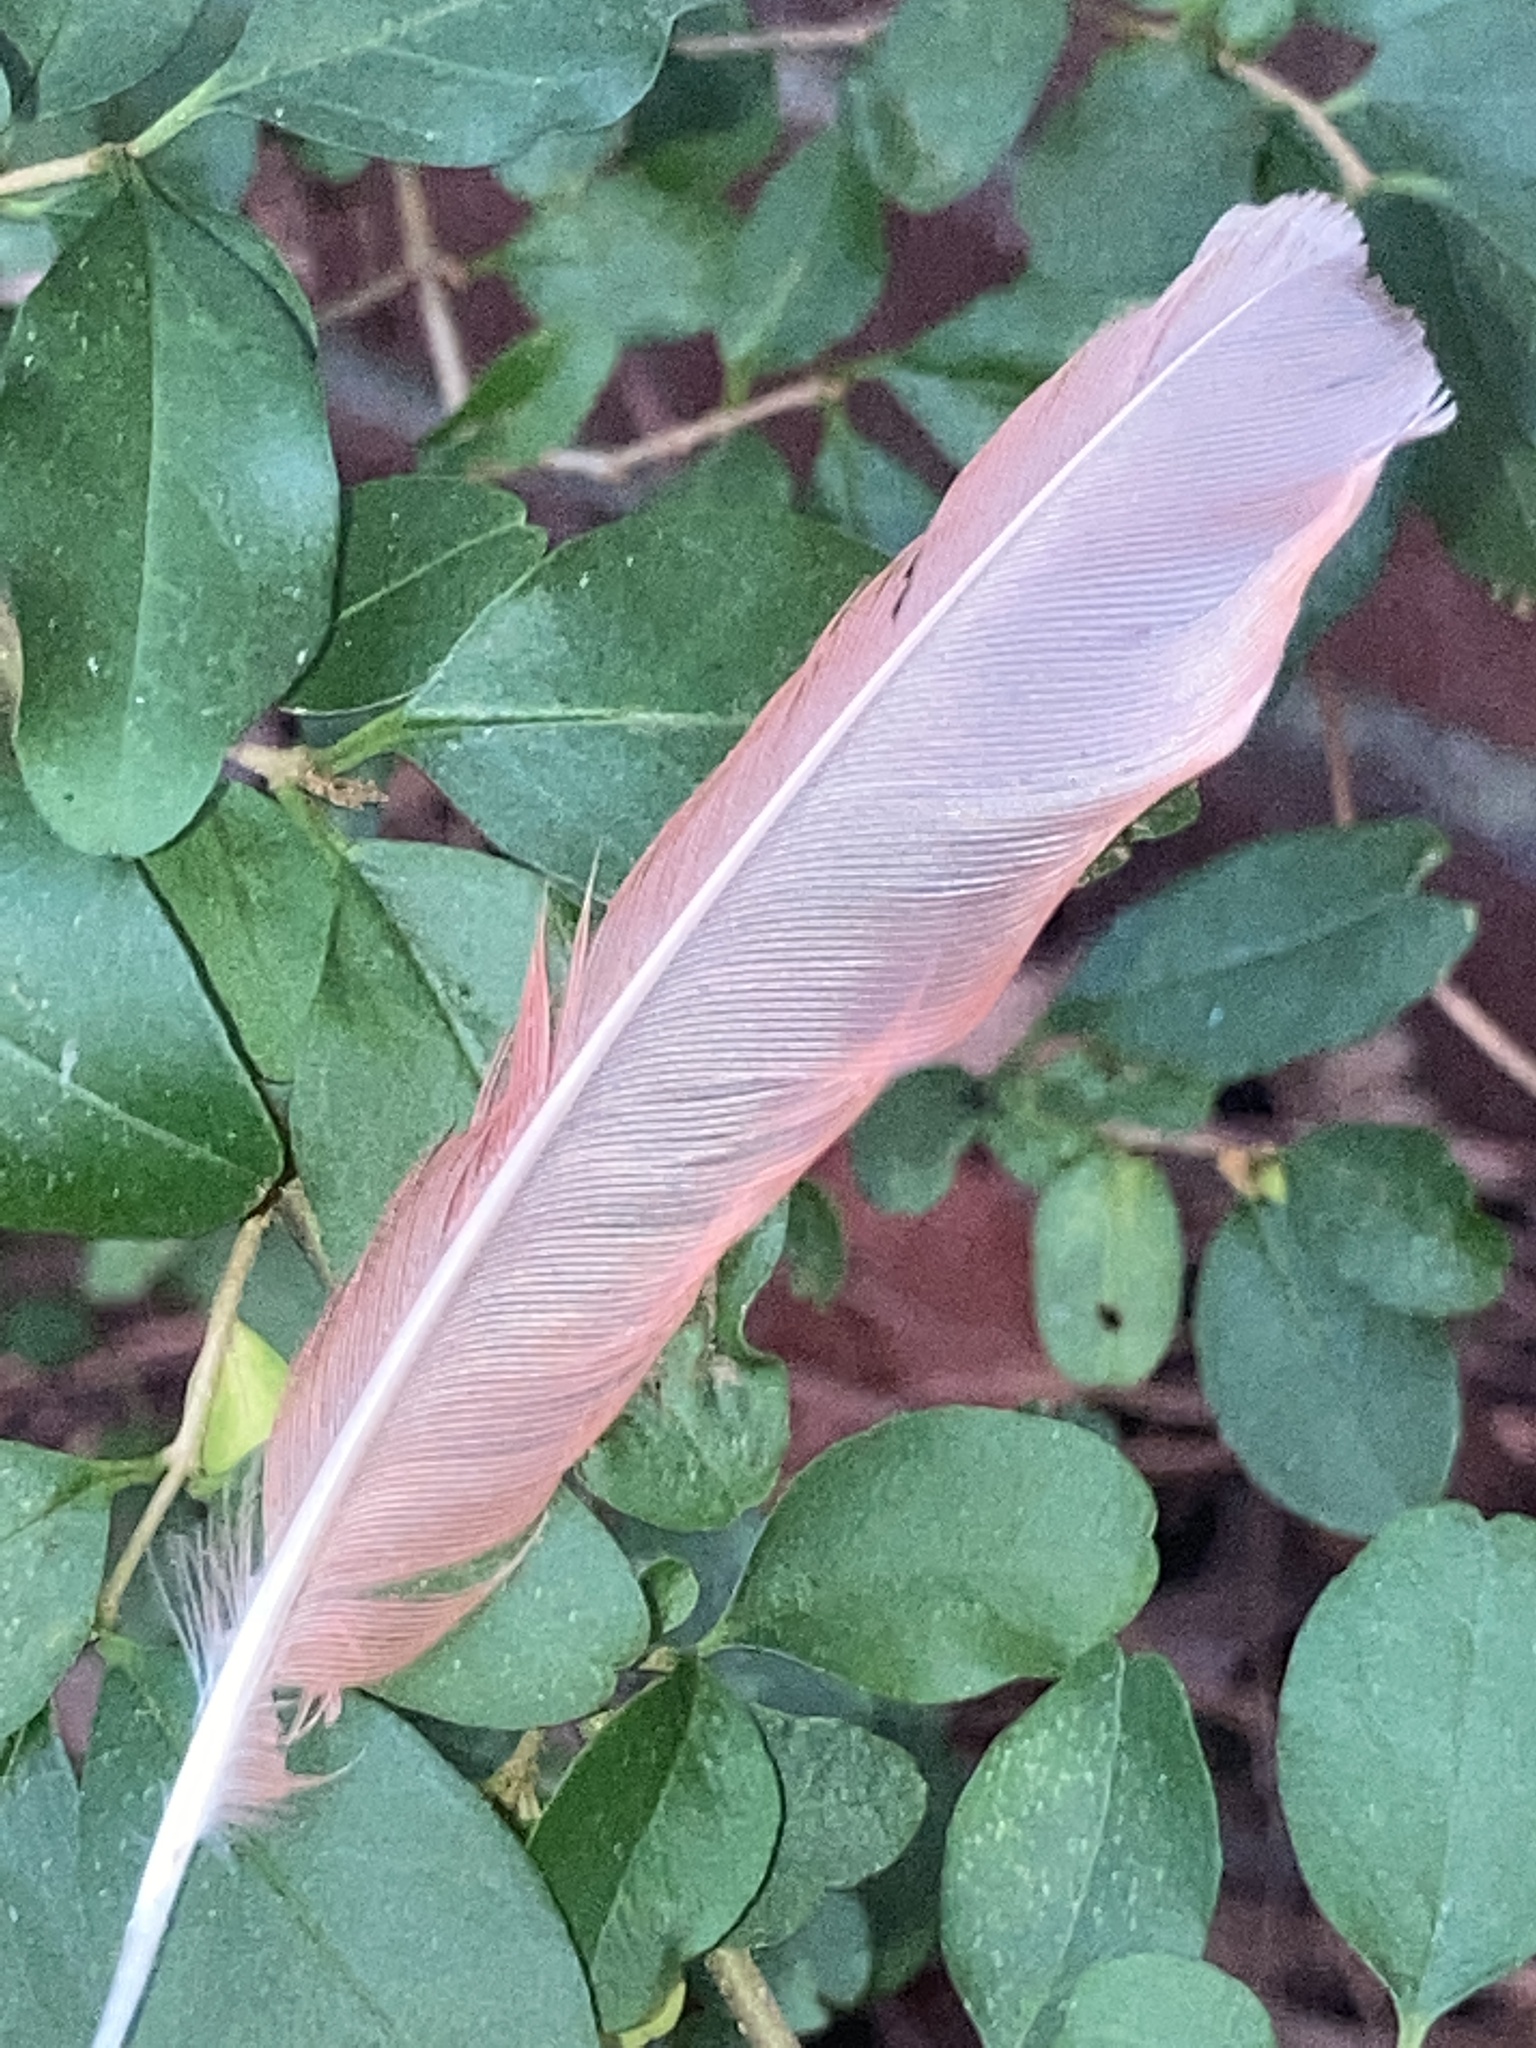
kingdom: Animalia
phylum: Chordata
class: Aves
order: Passeriformes
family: Cardinalidae
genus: Cardinalis
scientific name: Cardinalis cardinalis
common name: Northern cardinal
